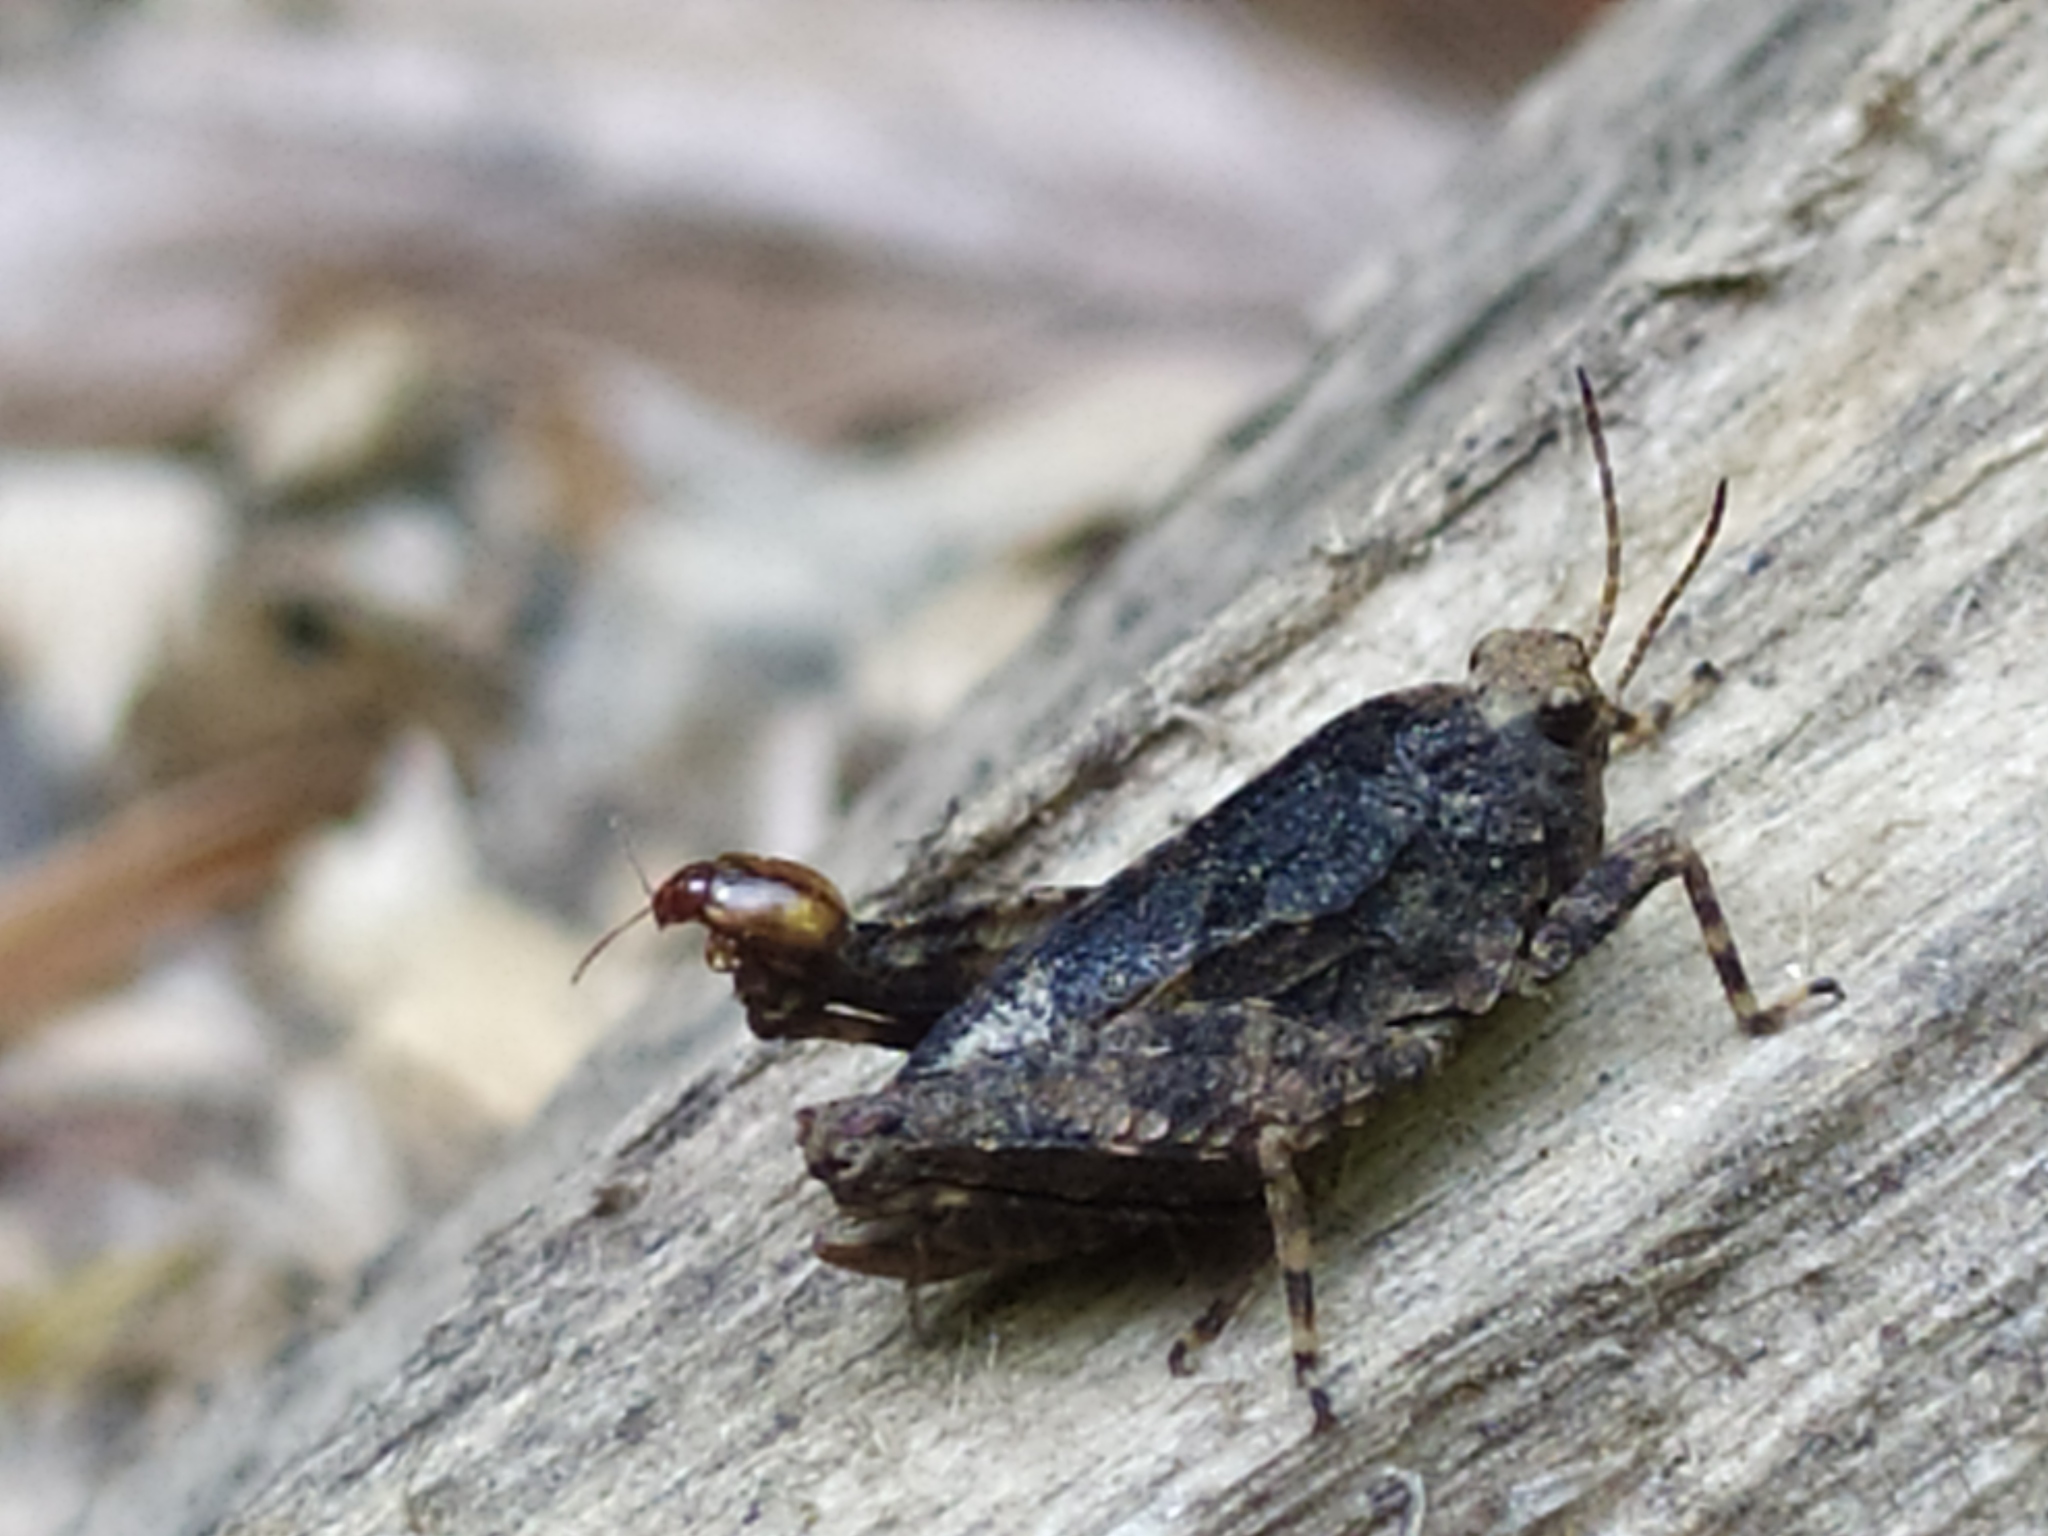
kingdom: Animalia
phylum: Arthropoda
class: Insecta
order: Orthoptera
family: Tetrigidae
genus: Tetrix
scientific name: Tetrix transsylvanica
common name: Transsylvanian wingless groundhopper
